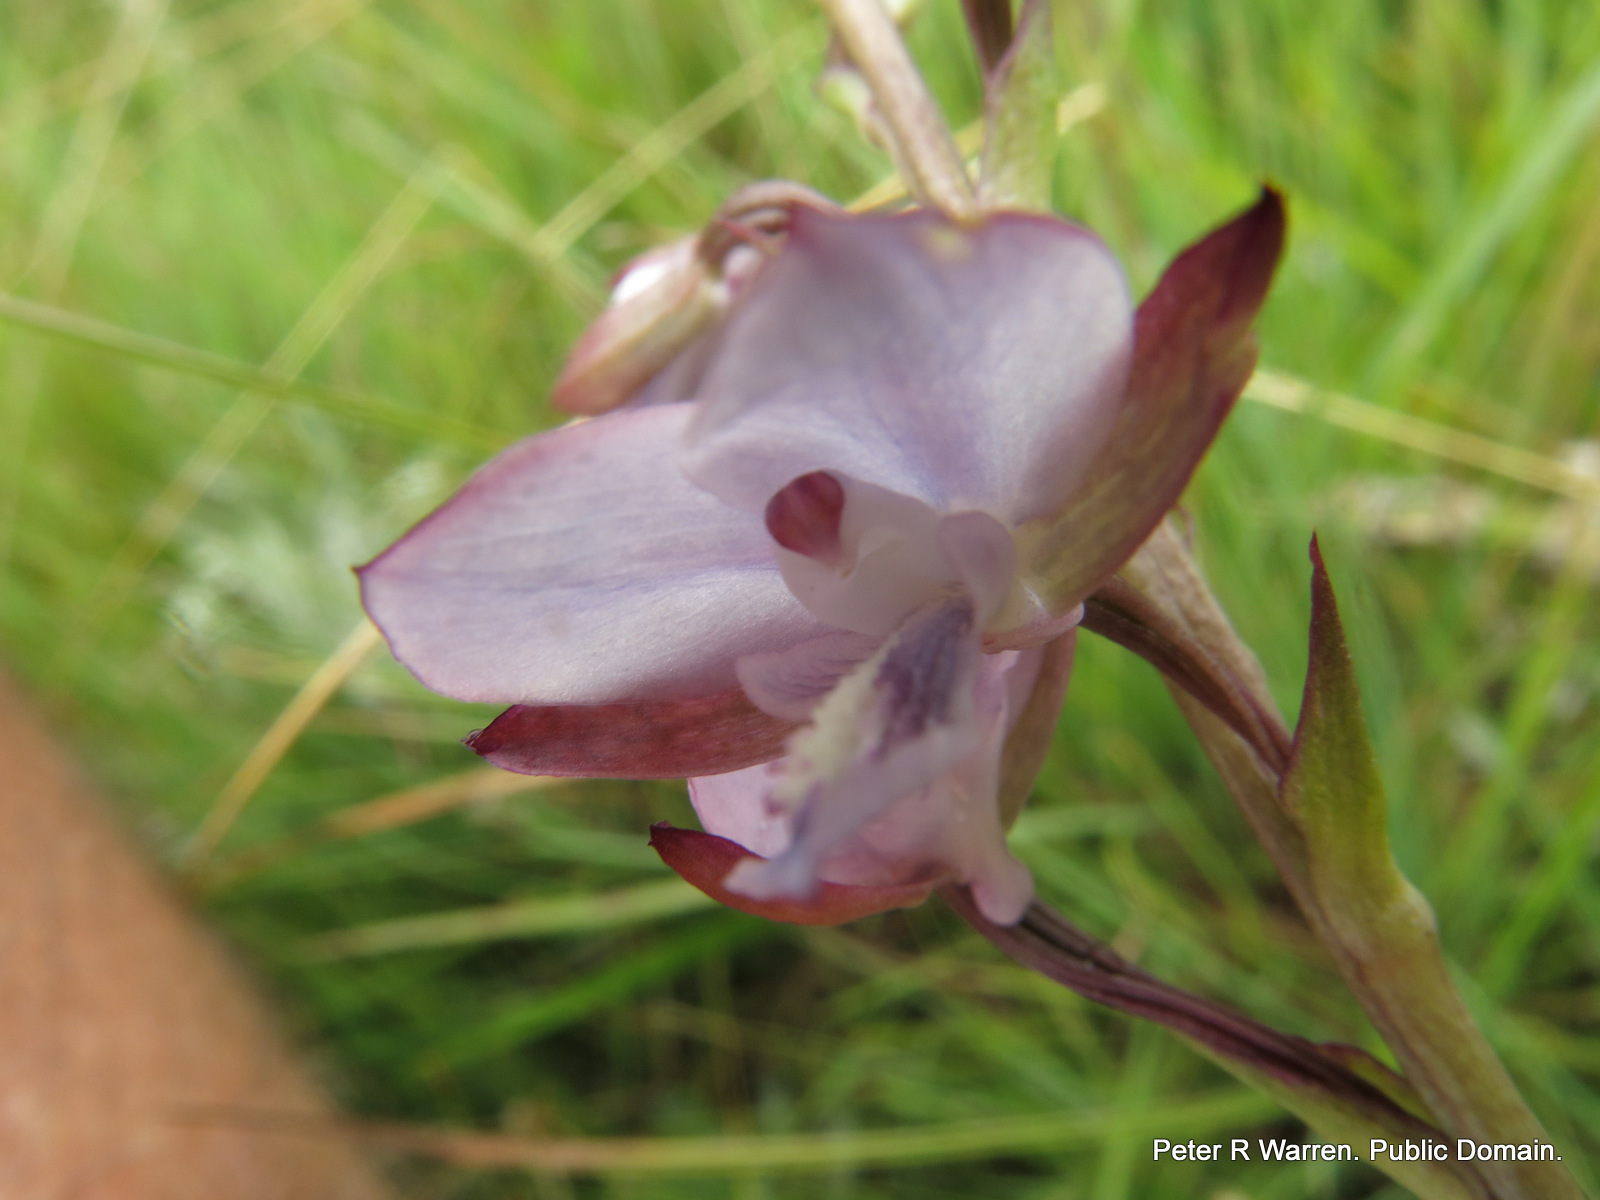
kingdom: Plantae
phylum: Tracheophyta
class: Liliopsida
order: Asparagales
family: Orchidaceae
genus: Eulophia
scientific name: Eulophia zeyheriana
